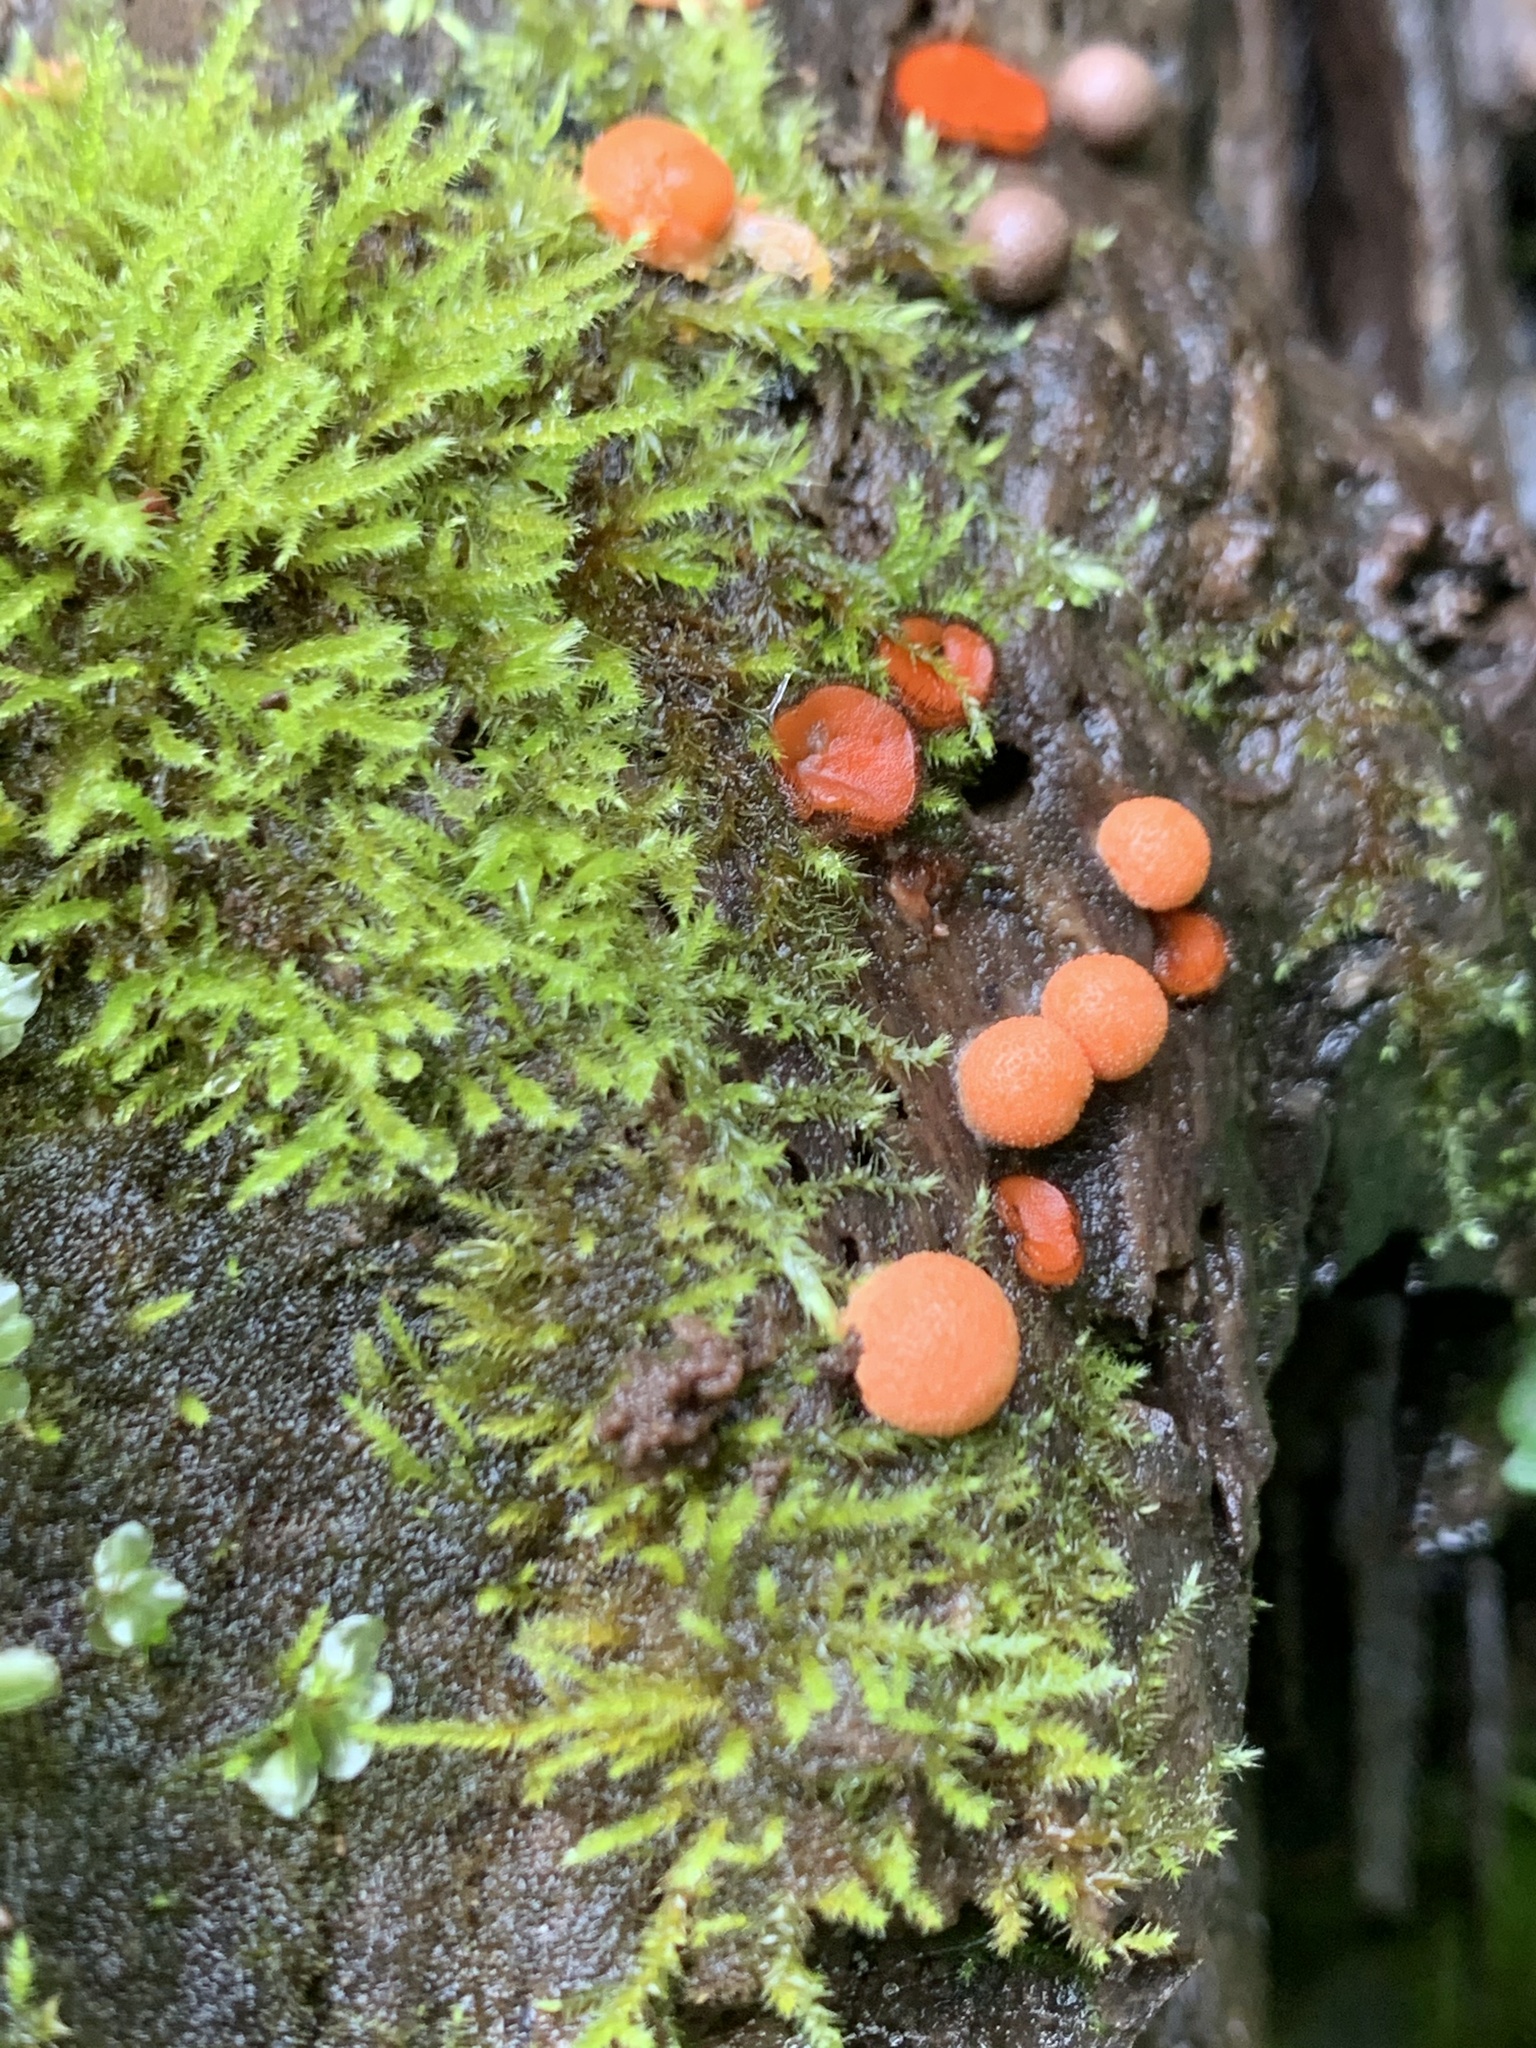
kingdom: Protozoa
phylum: Mycetozoa
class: Myxomycetes
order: Cribrariales
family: Tubiferaceae
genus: Lycogala
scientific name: Lycogala epidendrum
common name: Wolf's milk
